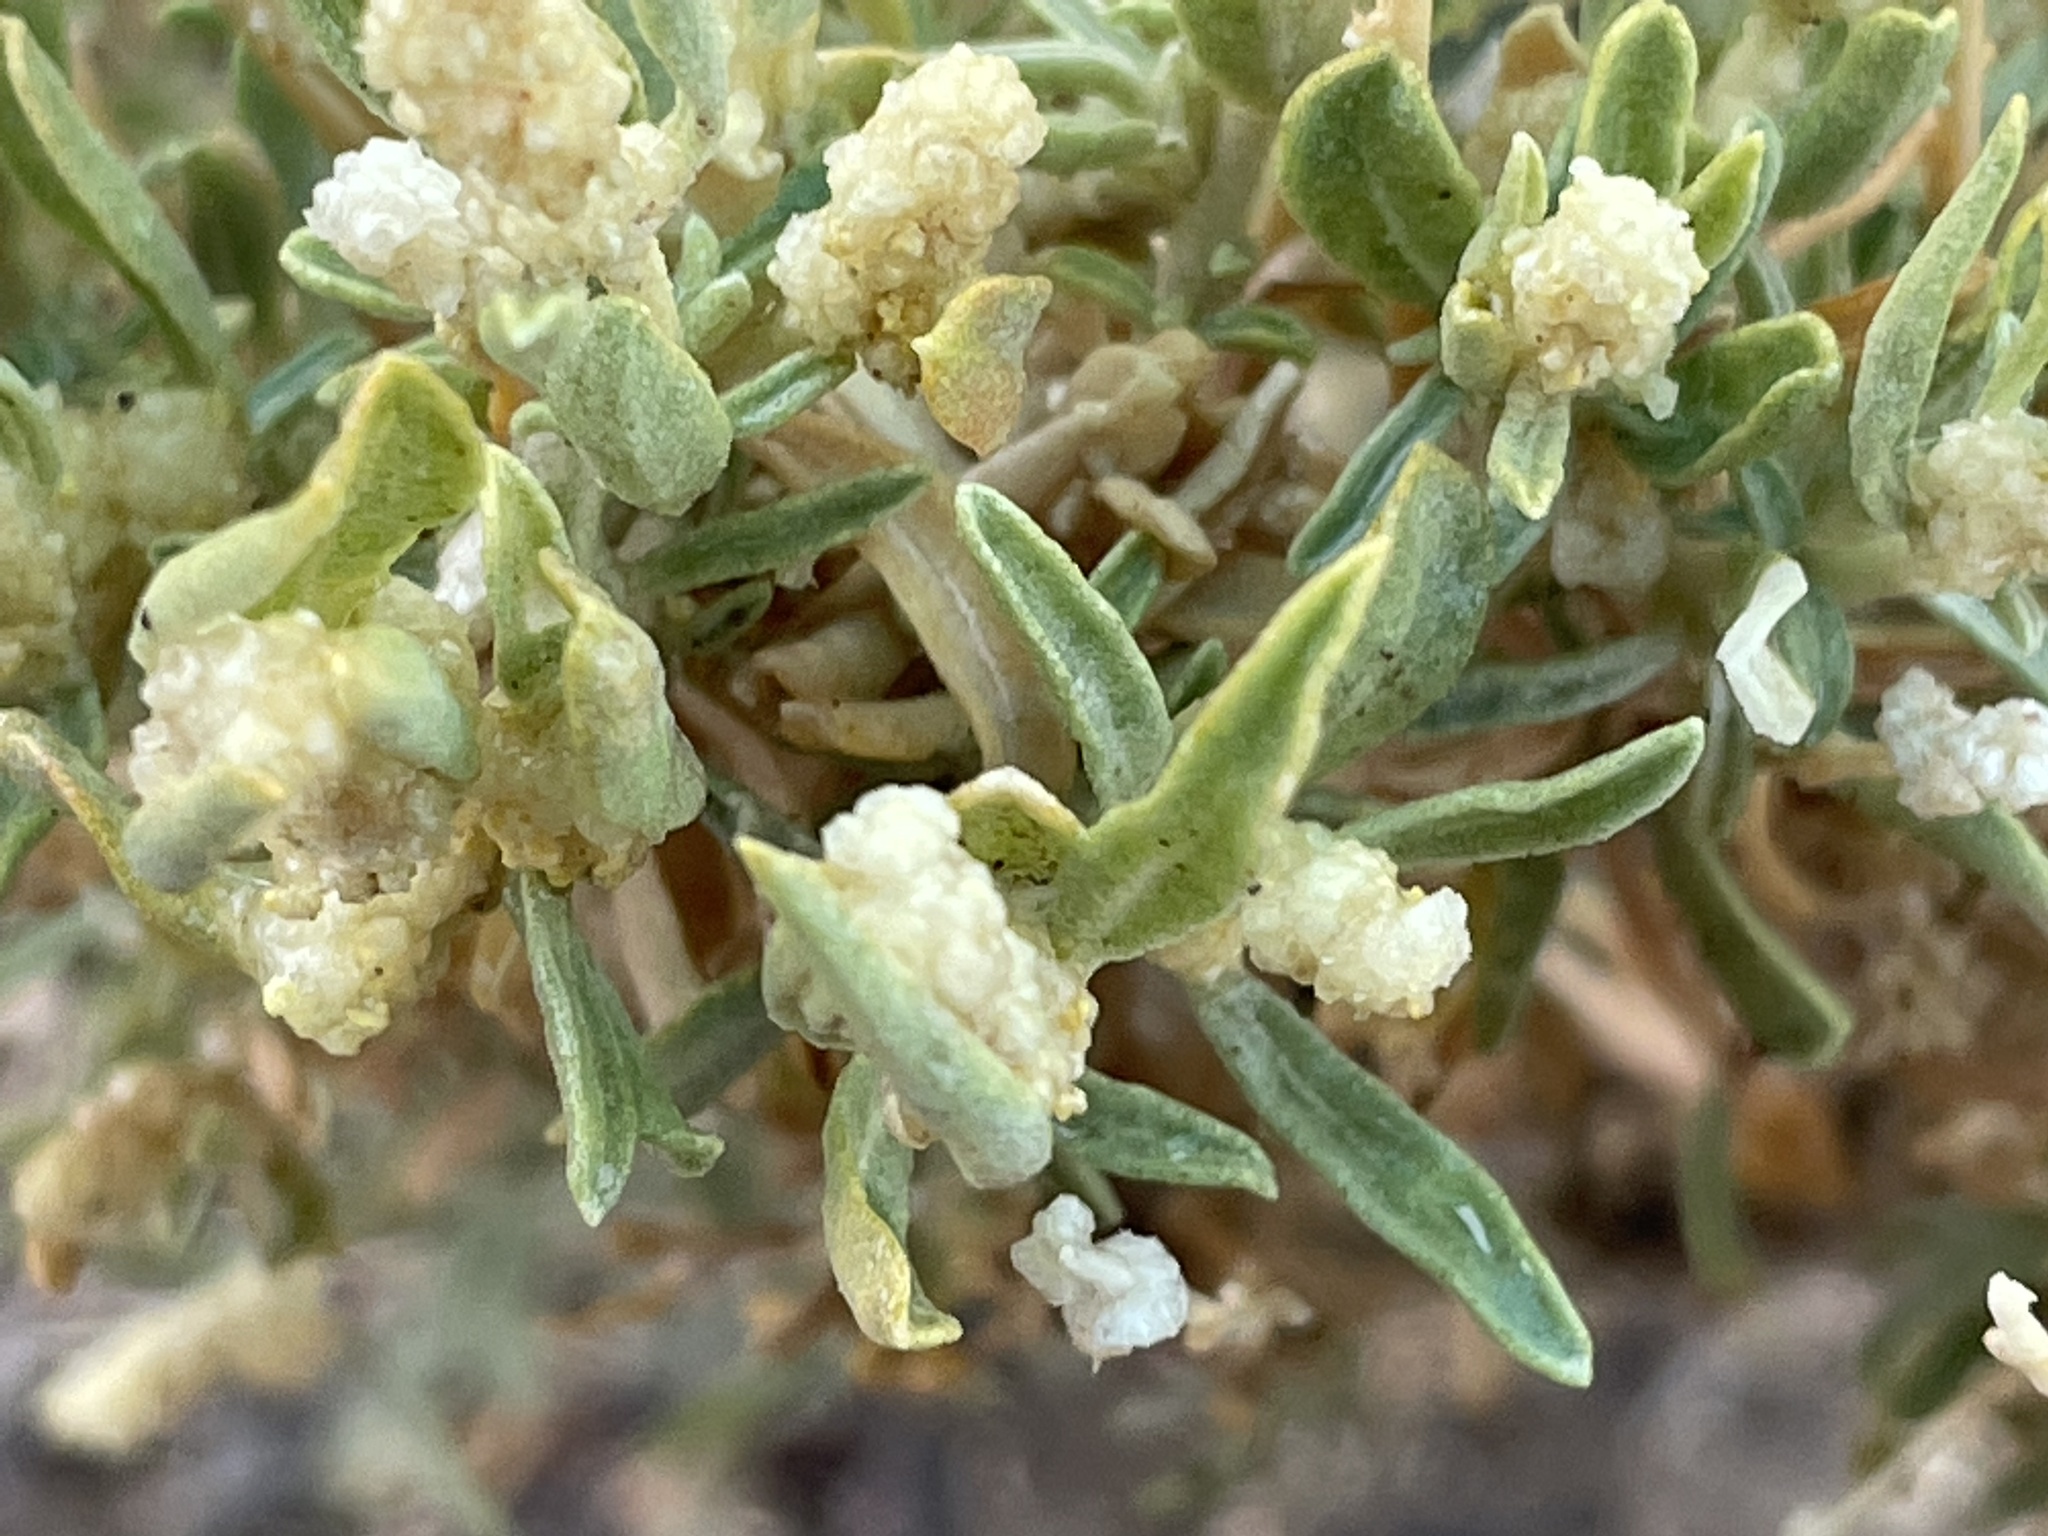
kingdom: Plantae
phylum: Tracheophyta
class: Magnoliopsida
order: Caryophyllales
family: Amaranthaceae
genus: Atriplex
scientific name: Atriplex canescens
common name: Four-wing saltbush
